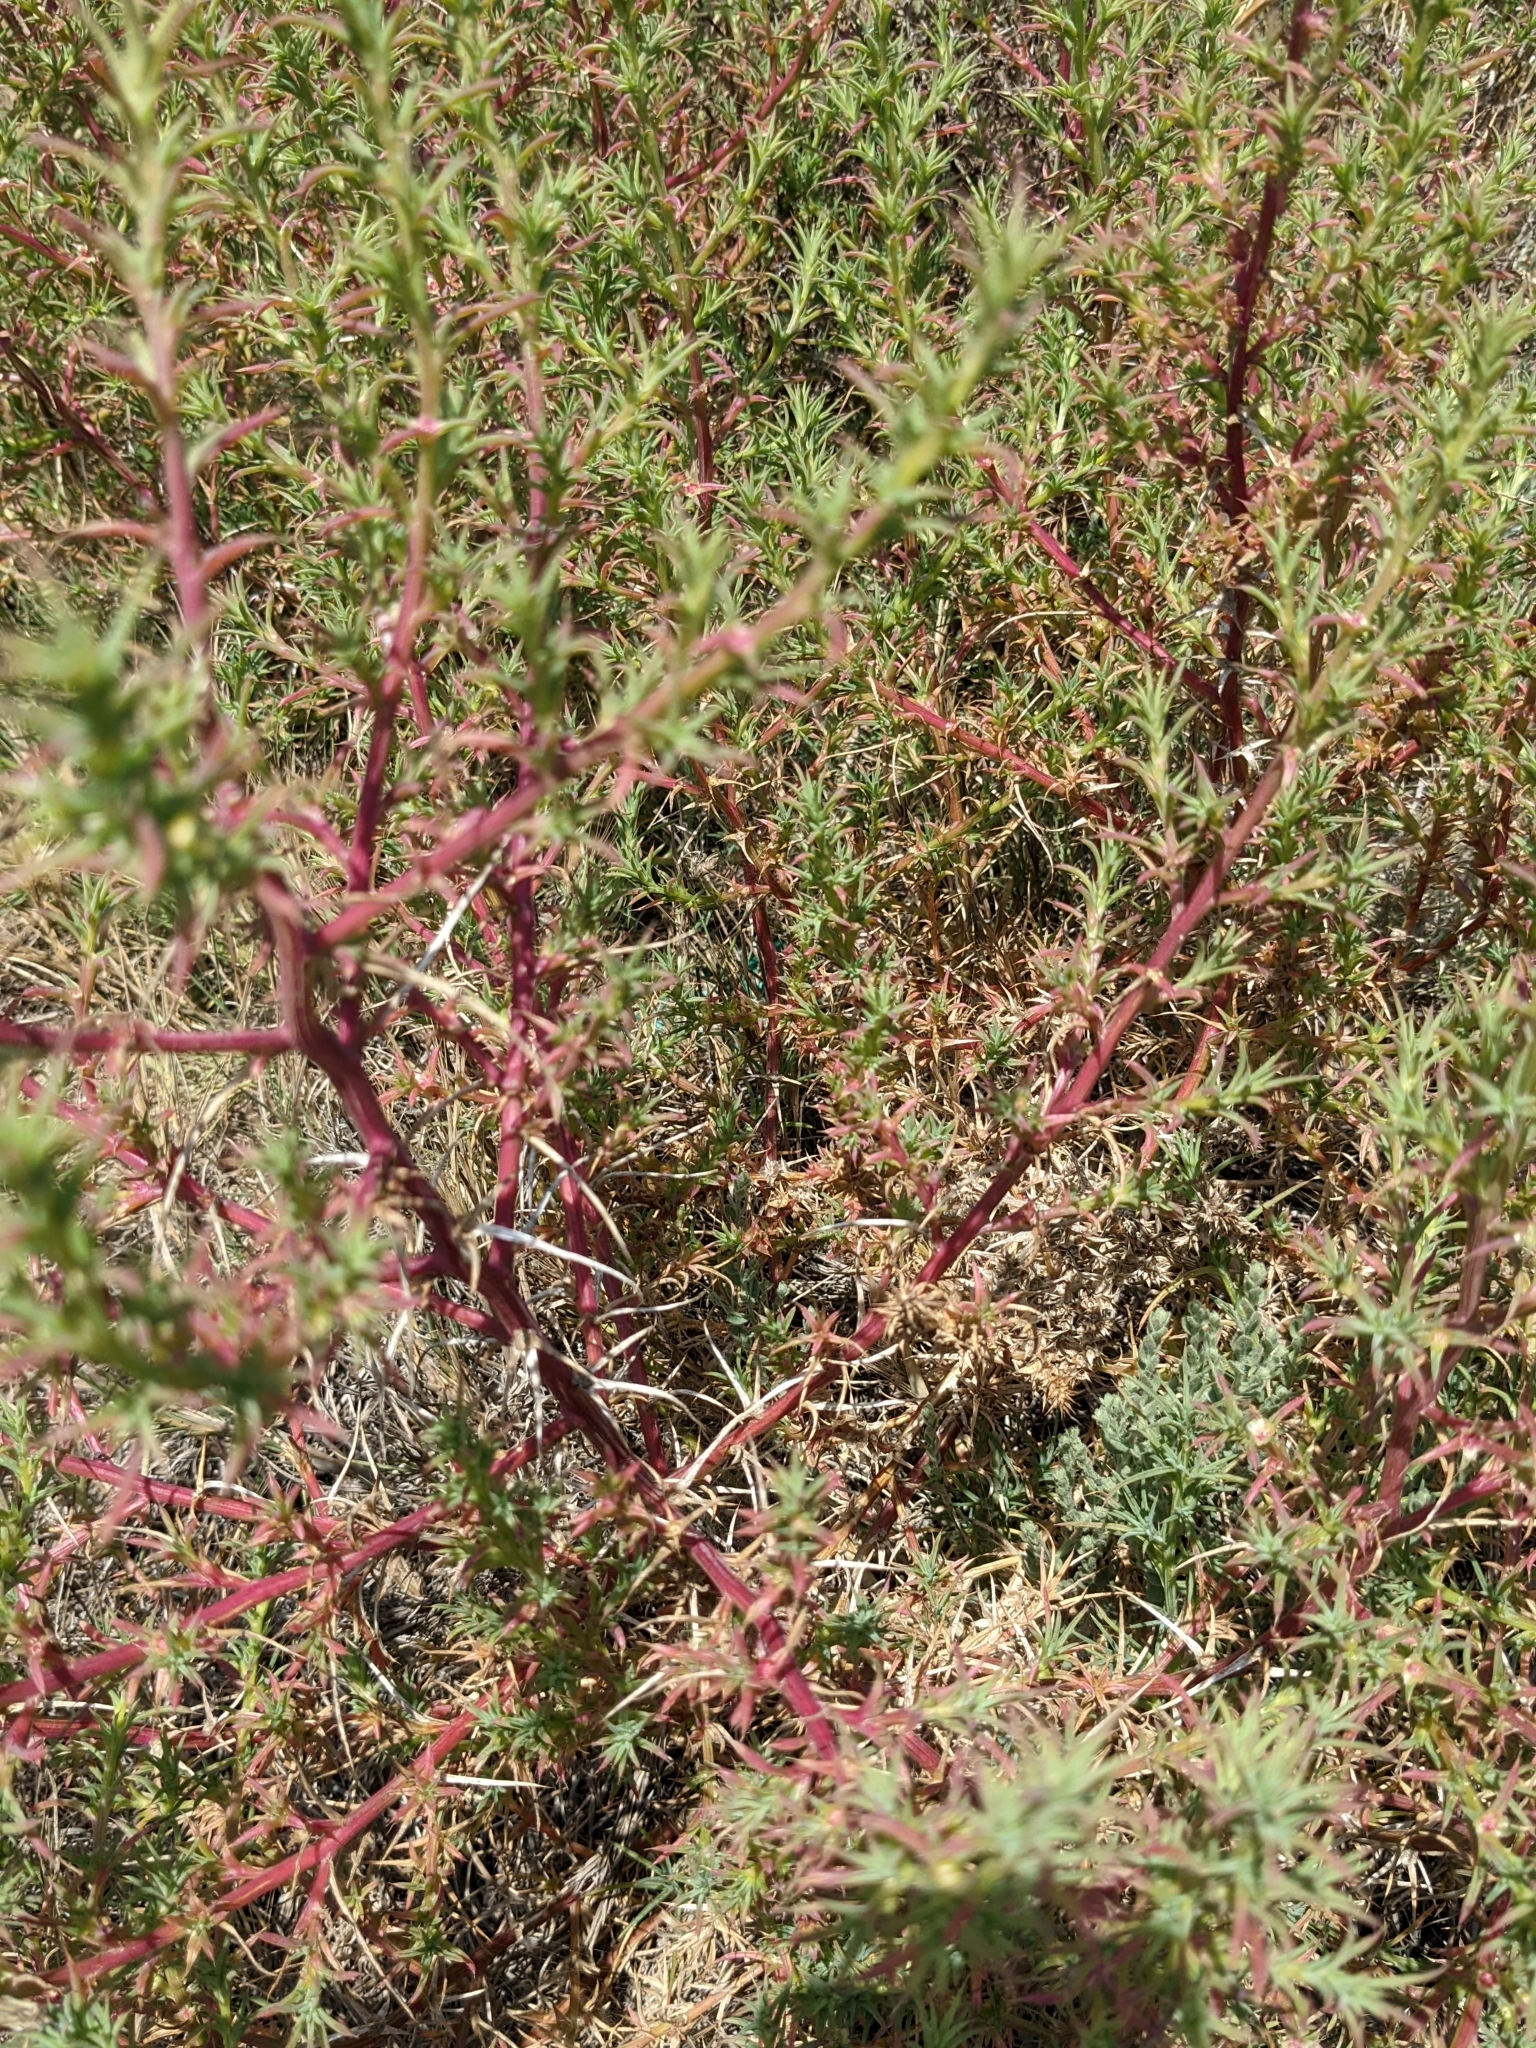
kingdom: Plantae
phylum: Tracheophyta
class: Magnoliopsida
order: Caryophyllales
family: Amaranthaceae
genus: Salsola
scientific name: Salsola tragus
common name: Prickly russian thistle
